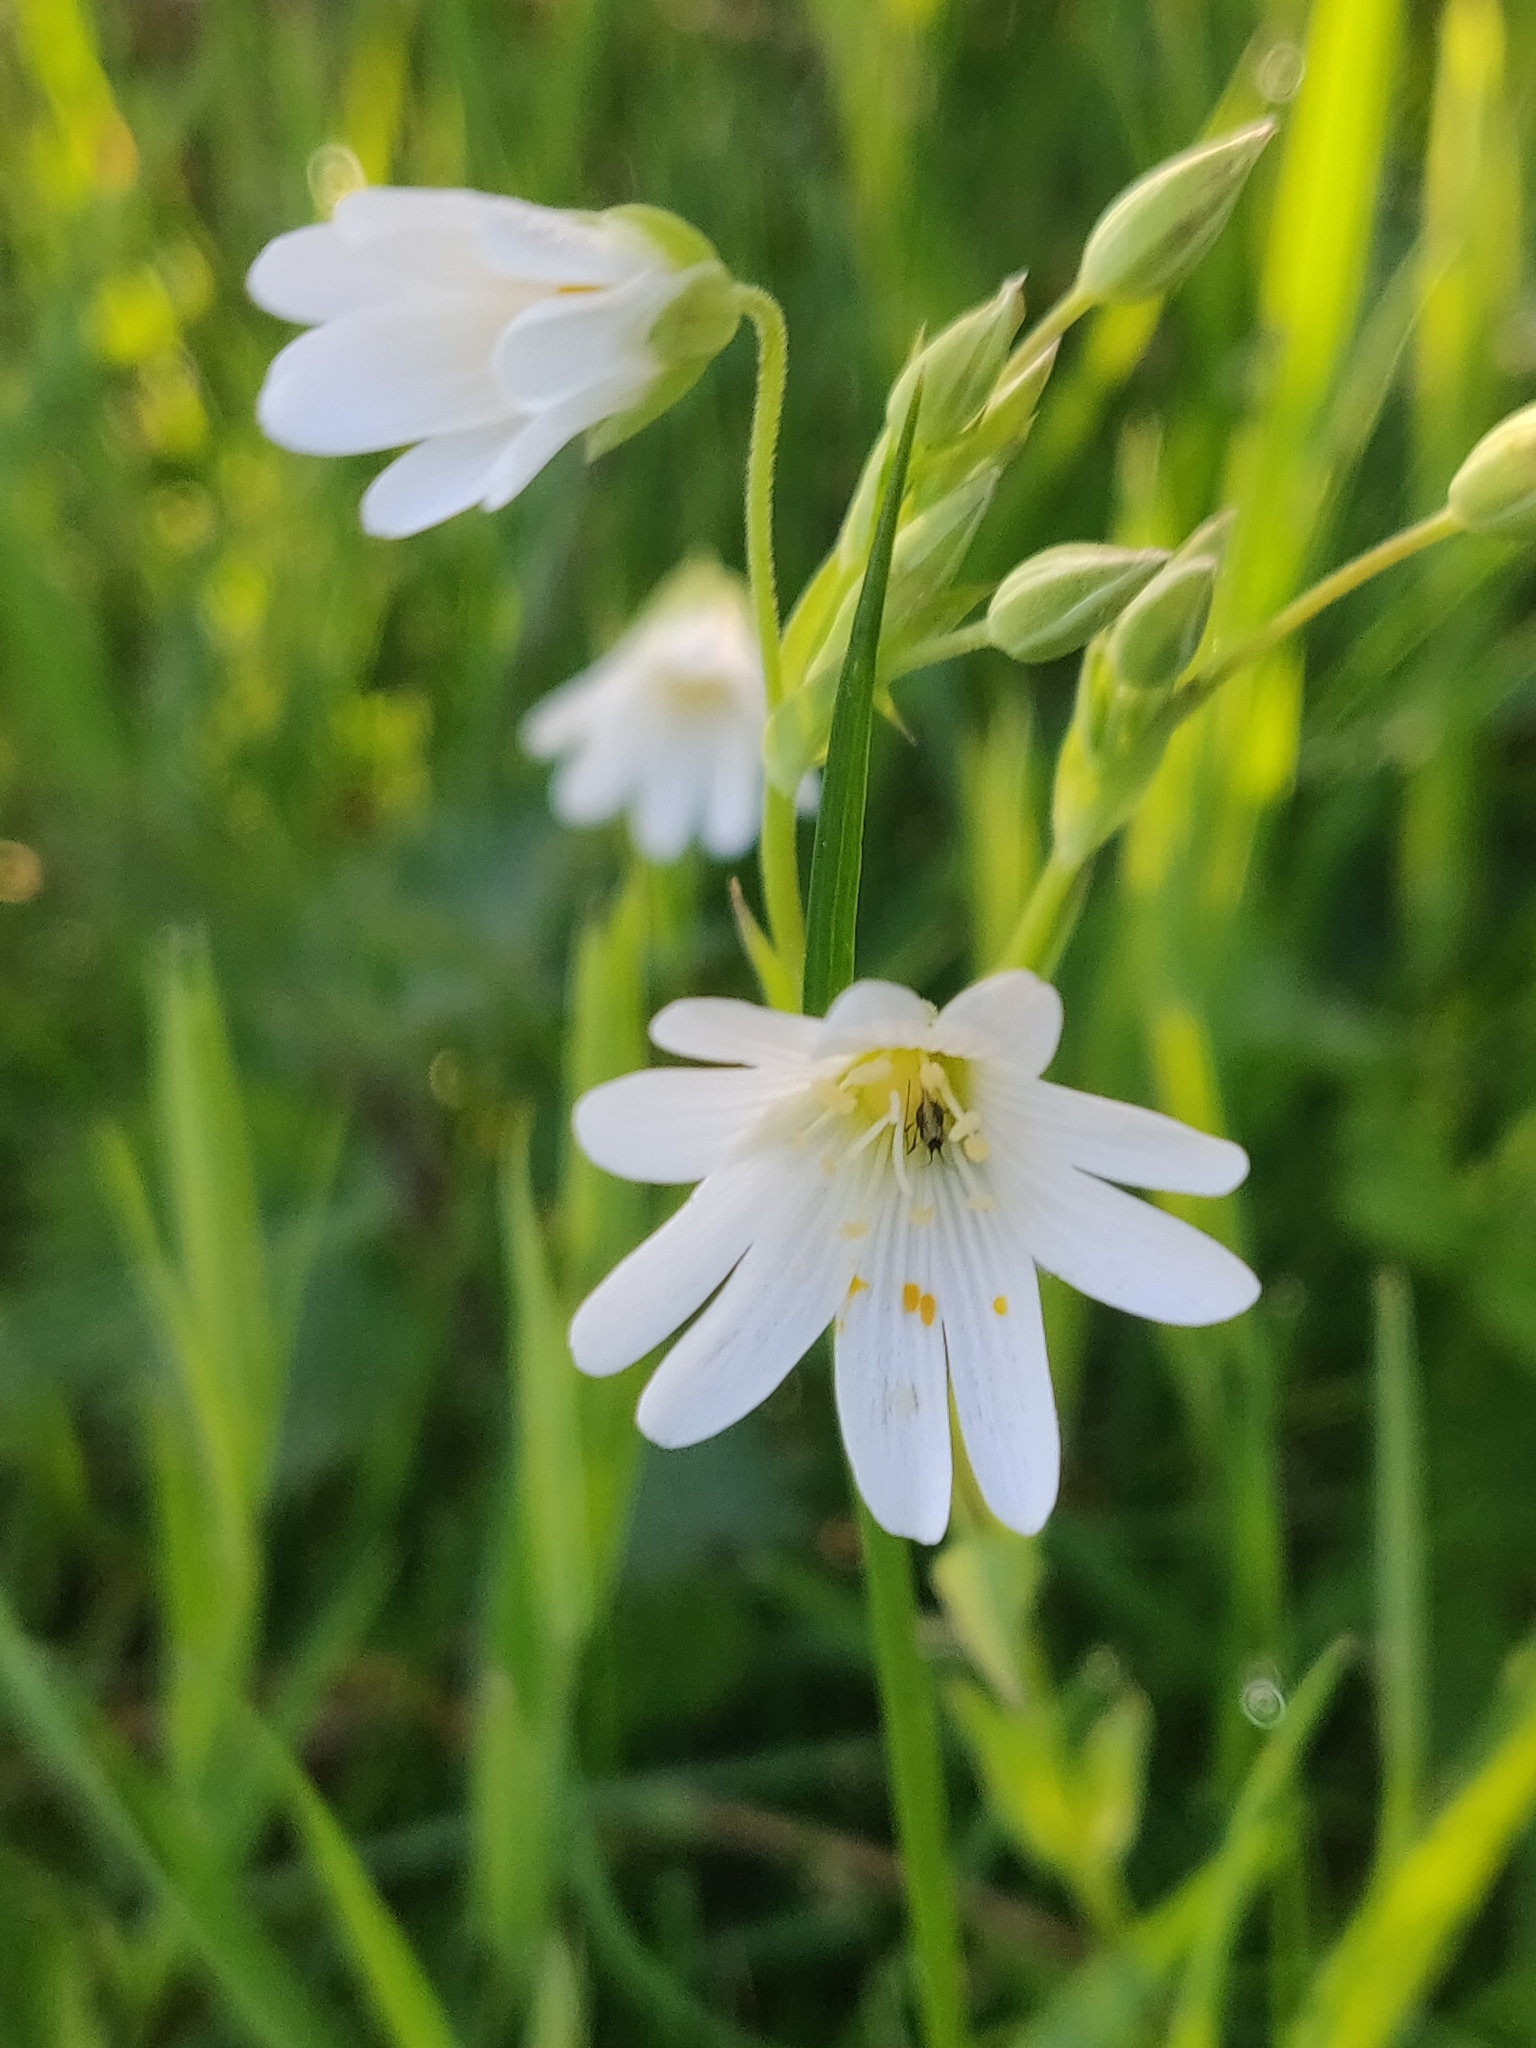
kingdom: Plantae
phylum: Tracheophyta
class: Magnoliopsida
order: Caryophyllales
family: Caryophyllaceae
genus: Rabelera
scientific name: Rabelera holostea
